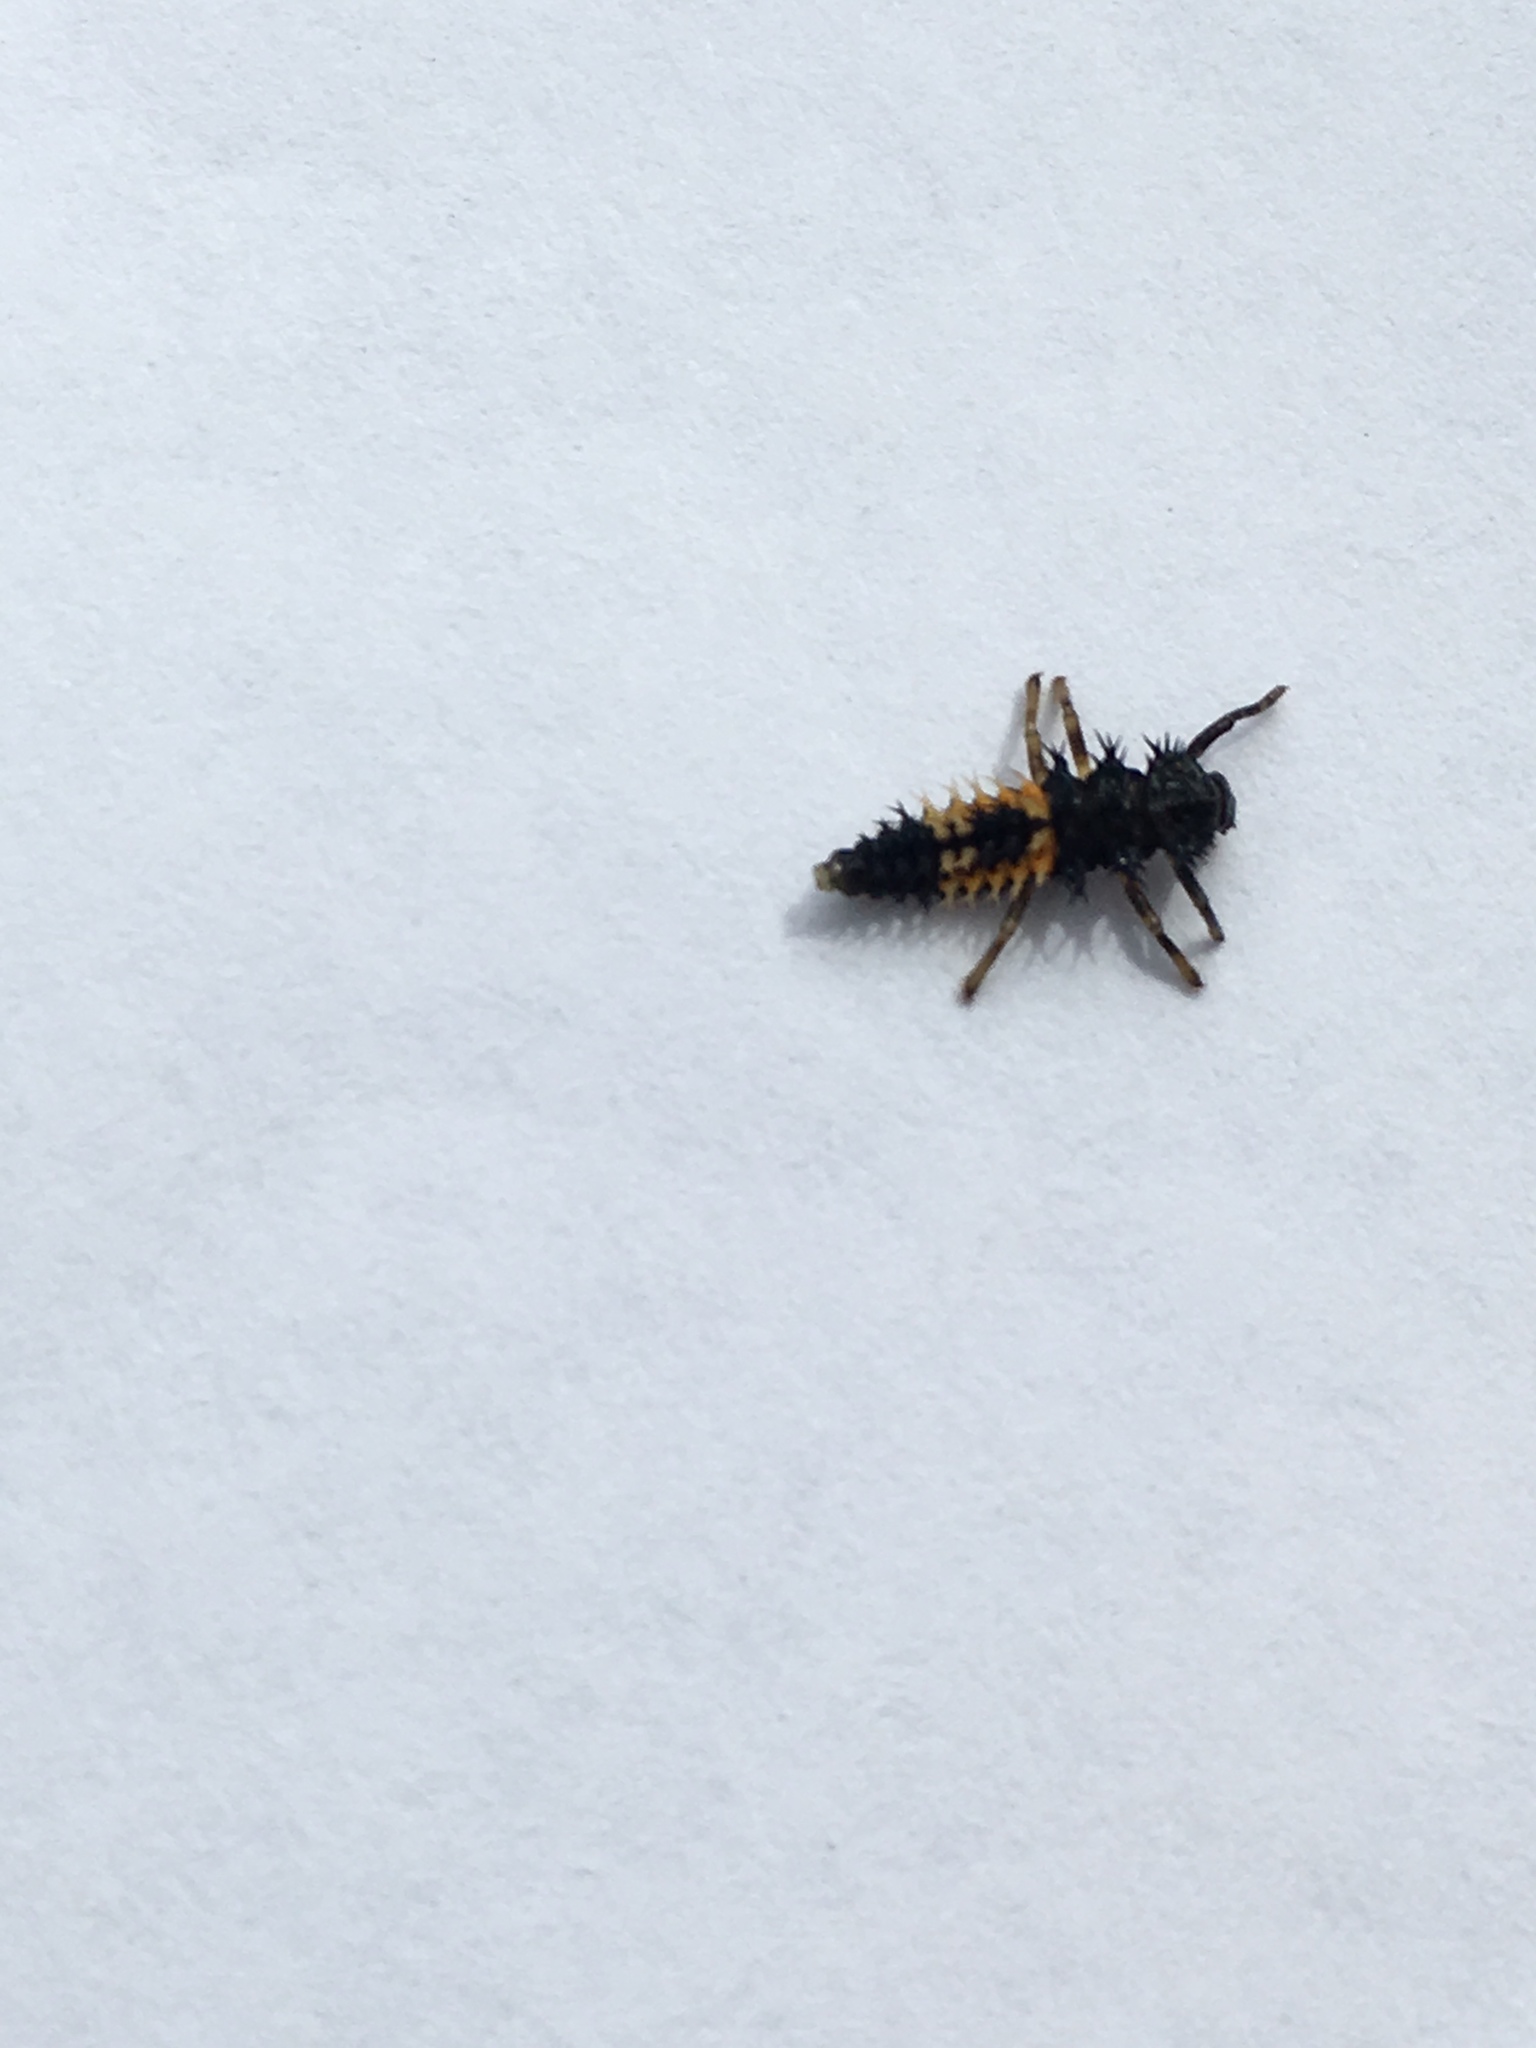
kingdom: Animalia
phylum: Arthropoda
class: Insecta
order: Coleoptera
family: Coccinellidae
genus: Harmonia
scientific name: Harmonia axyridis
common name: Harlequin ladybird
